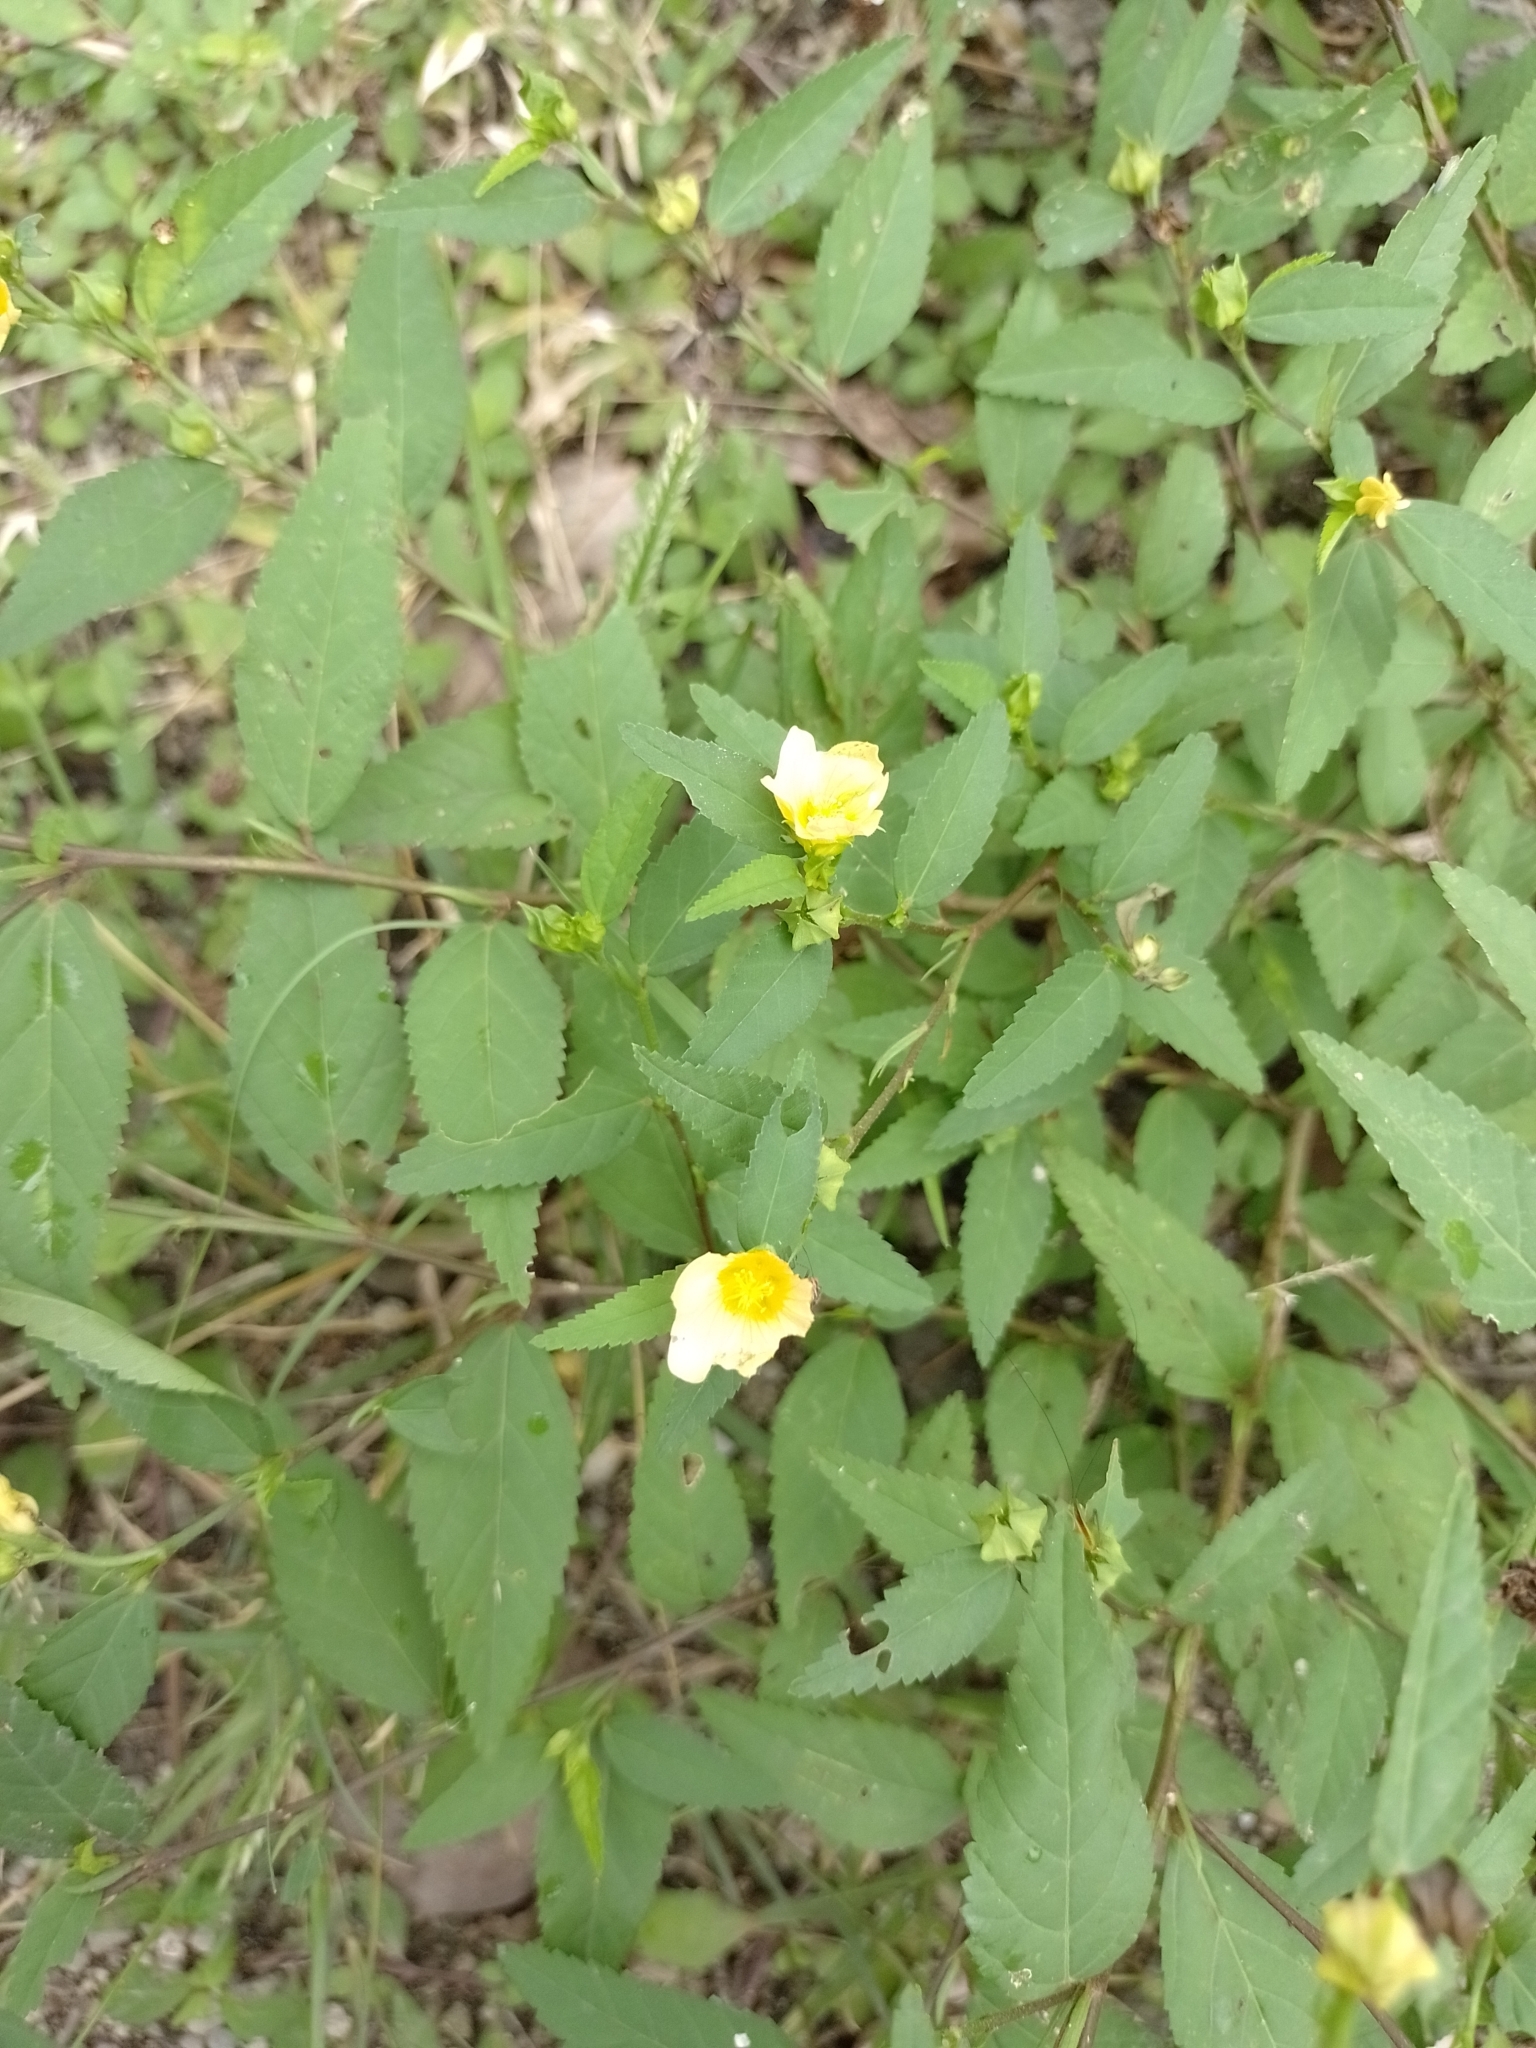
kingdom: Plantae
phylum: Tracheophyta
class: Magnoliopsida
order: Malvales
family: Malvaceae
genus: Sida
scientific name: Sida acuta
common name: Common wireweed
